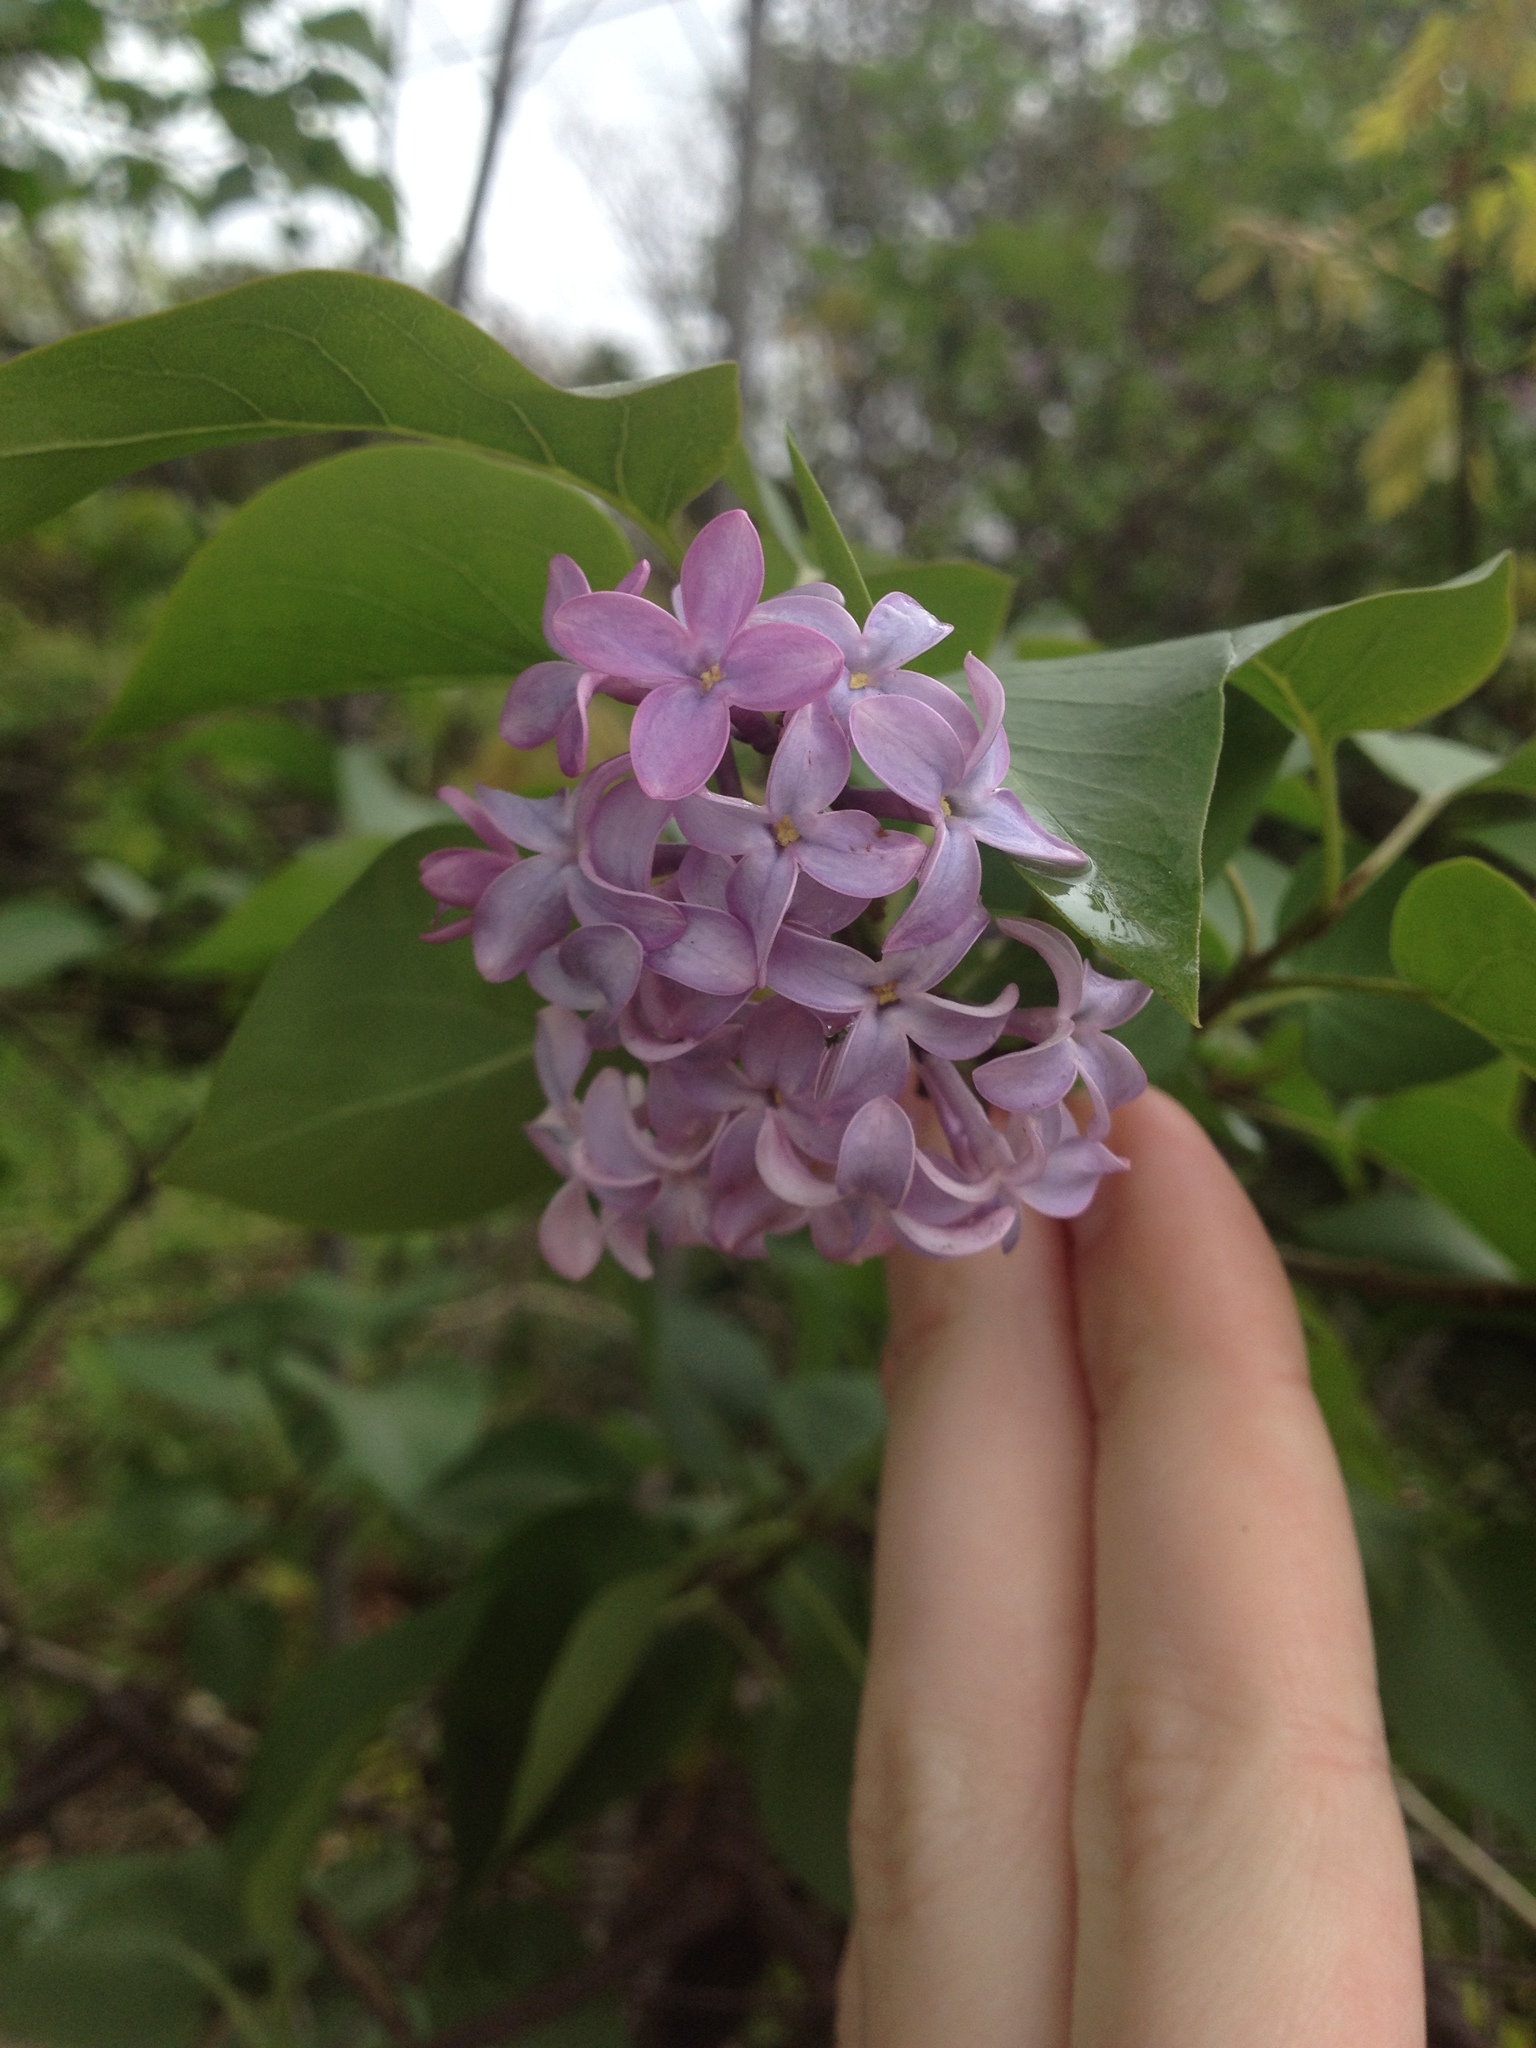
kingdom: Plantae
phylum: Tracheophyta
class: Magnoliopsida
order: Lamiales
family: Oleaceae
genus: Syringa
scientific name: Syringa vulgaris
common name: Common lilac
